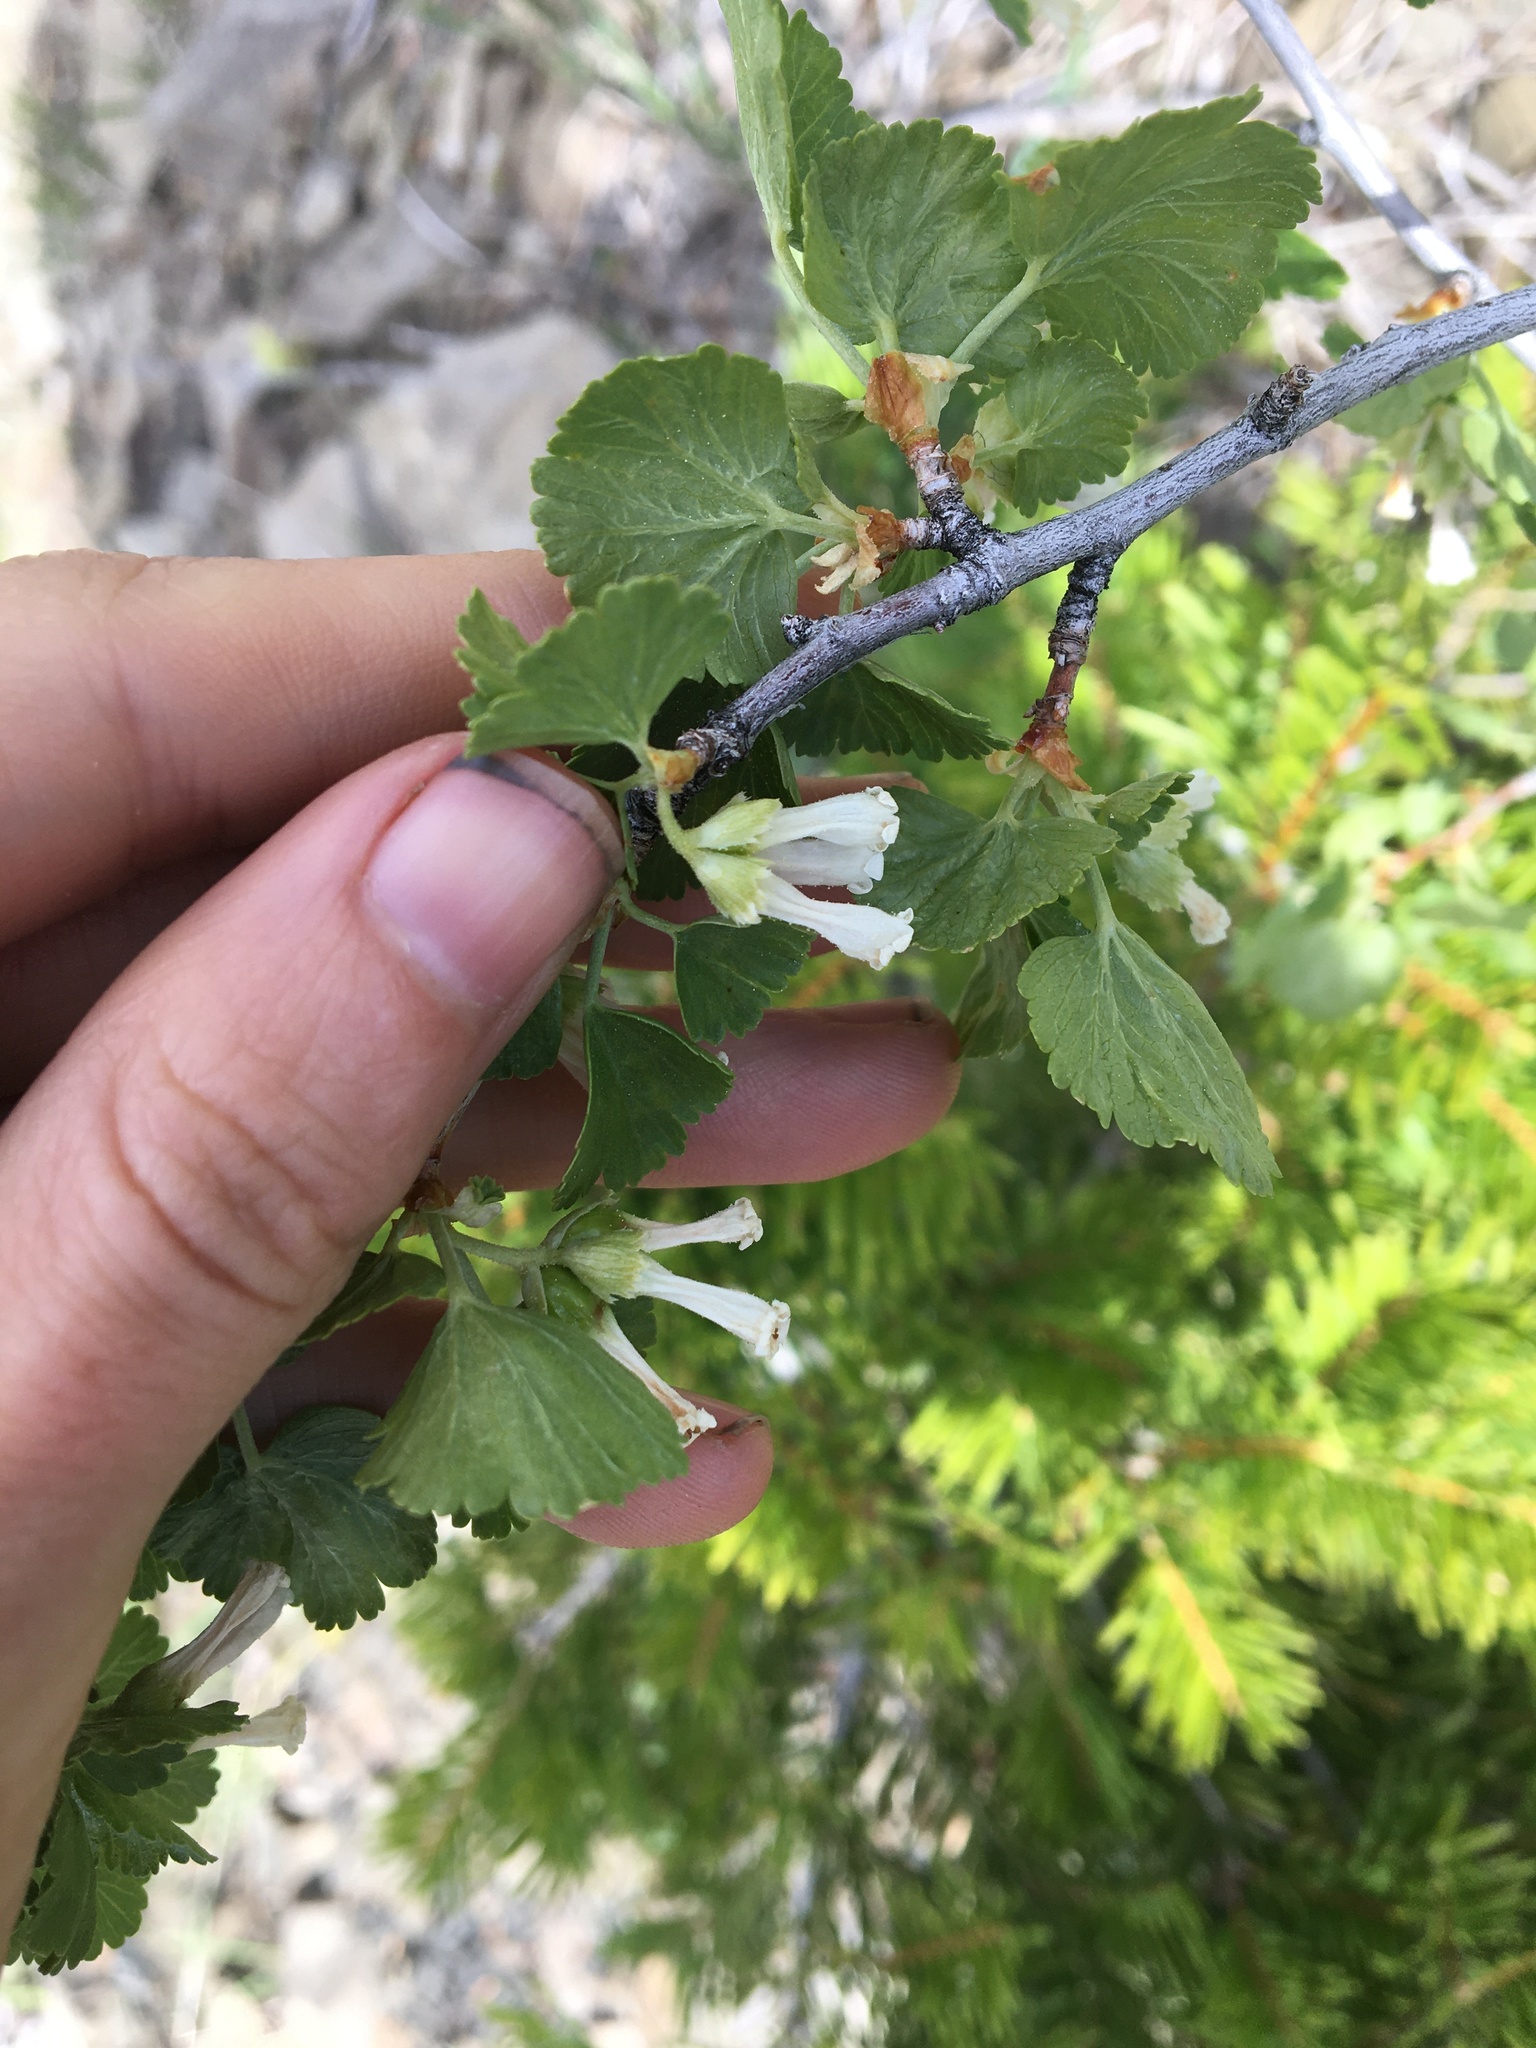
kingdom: Plantae
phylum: Tracheophyta
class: Magnoliopsida
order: Saxifragales
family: Grossulariaceae
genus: Ribes
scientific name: Ribes cereum
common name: Wax currant
